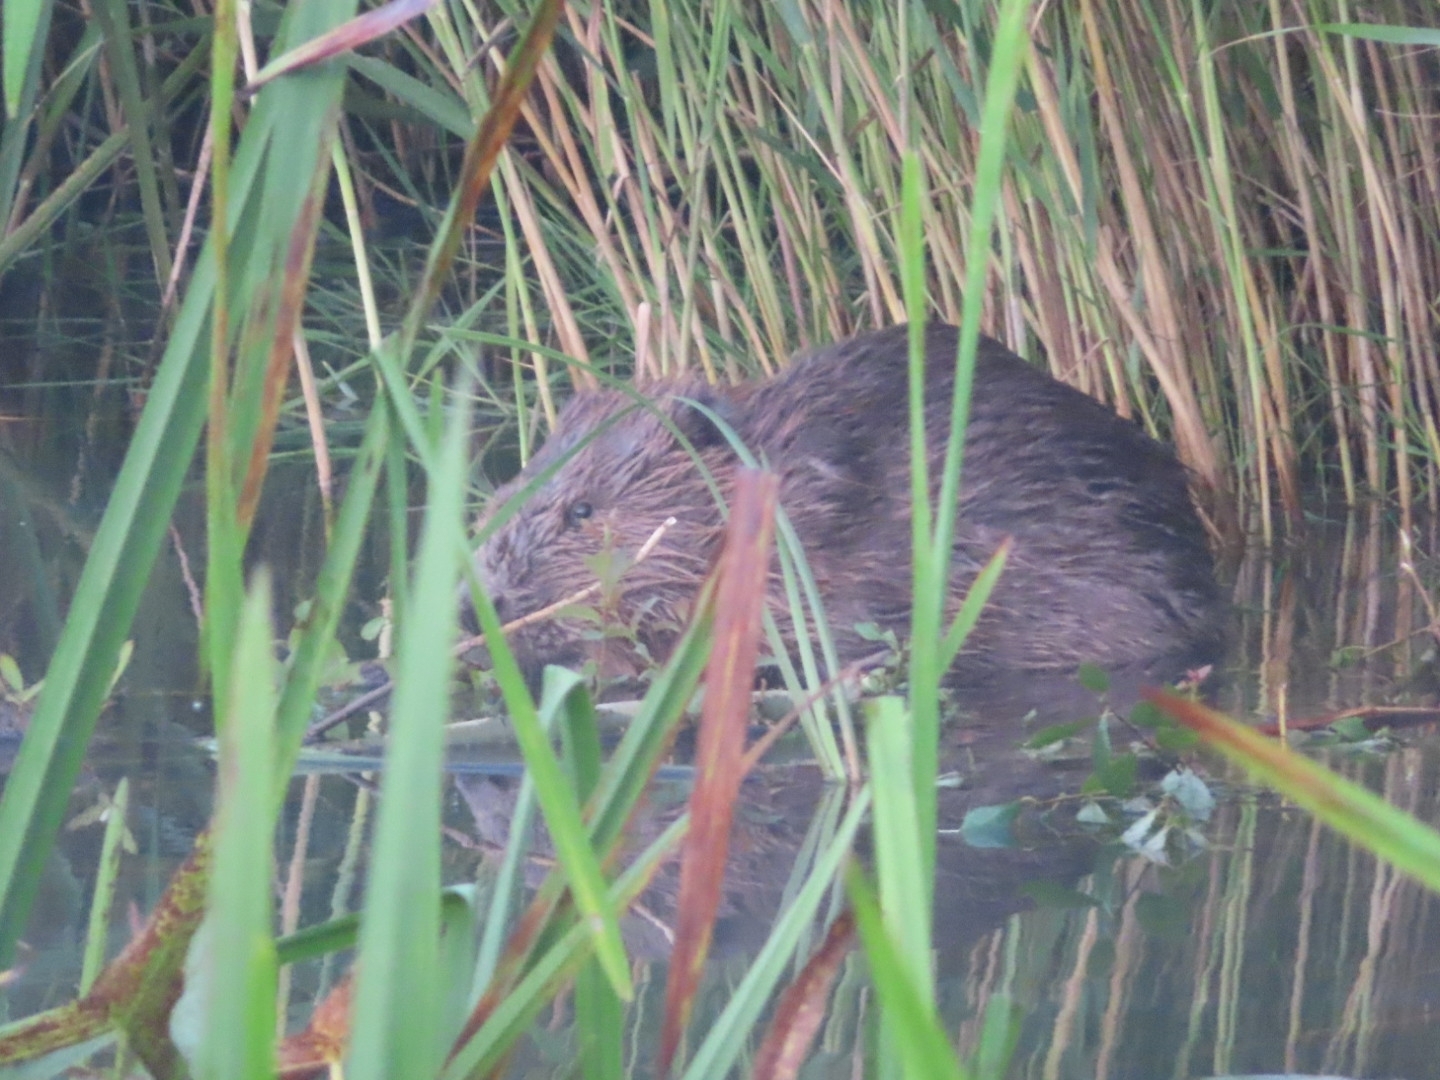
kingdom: Animalia
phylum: Chordata
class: Mammalia
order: Rodentia
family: Castoridae
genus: Castor
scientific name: Castor fiber
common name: Eurasian beaver
